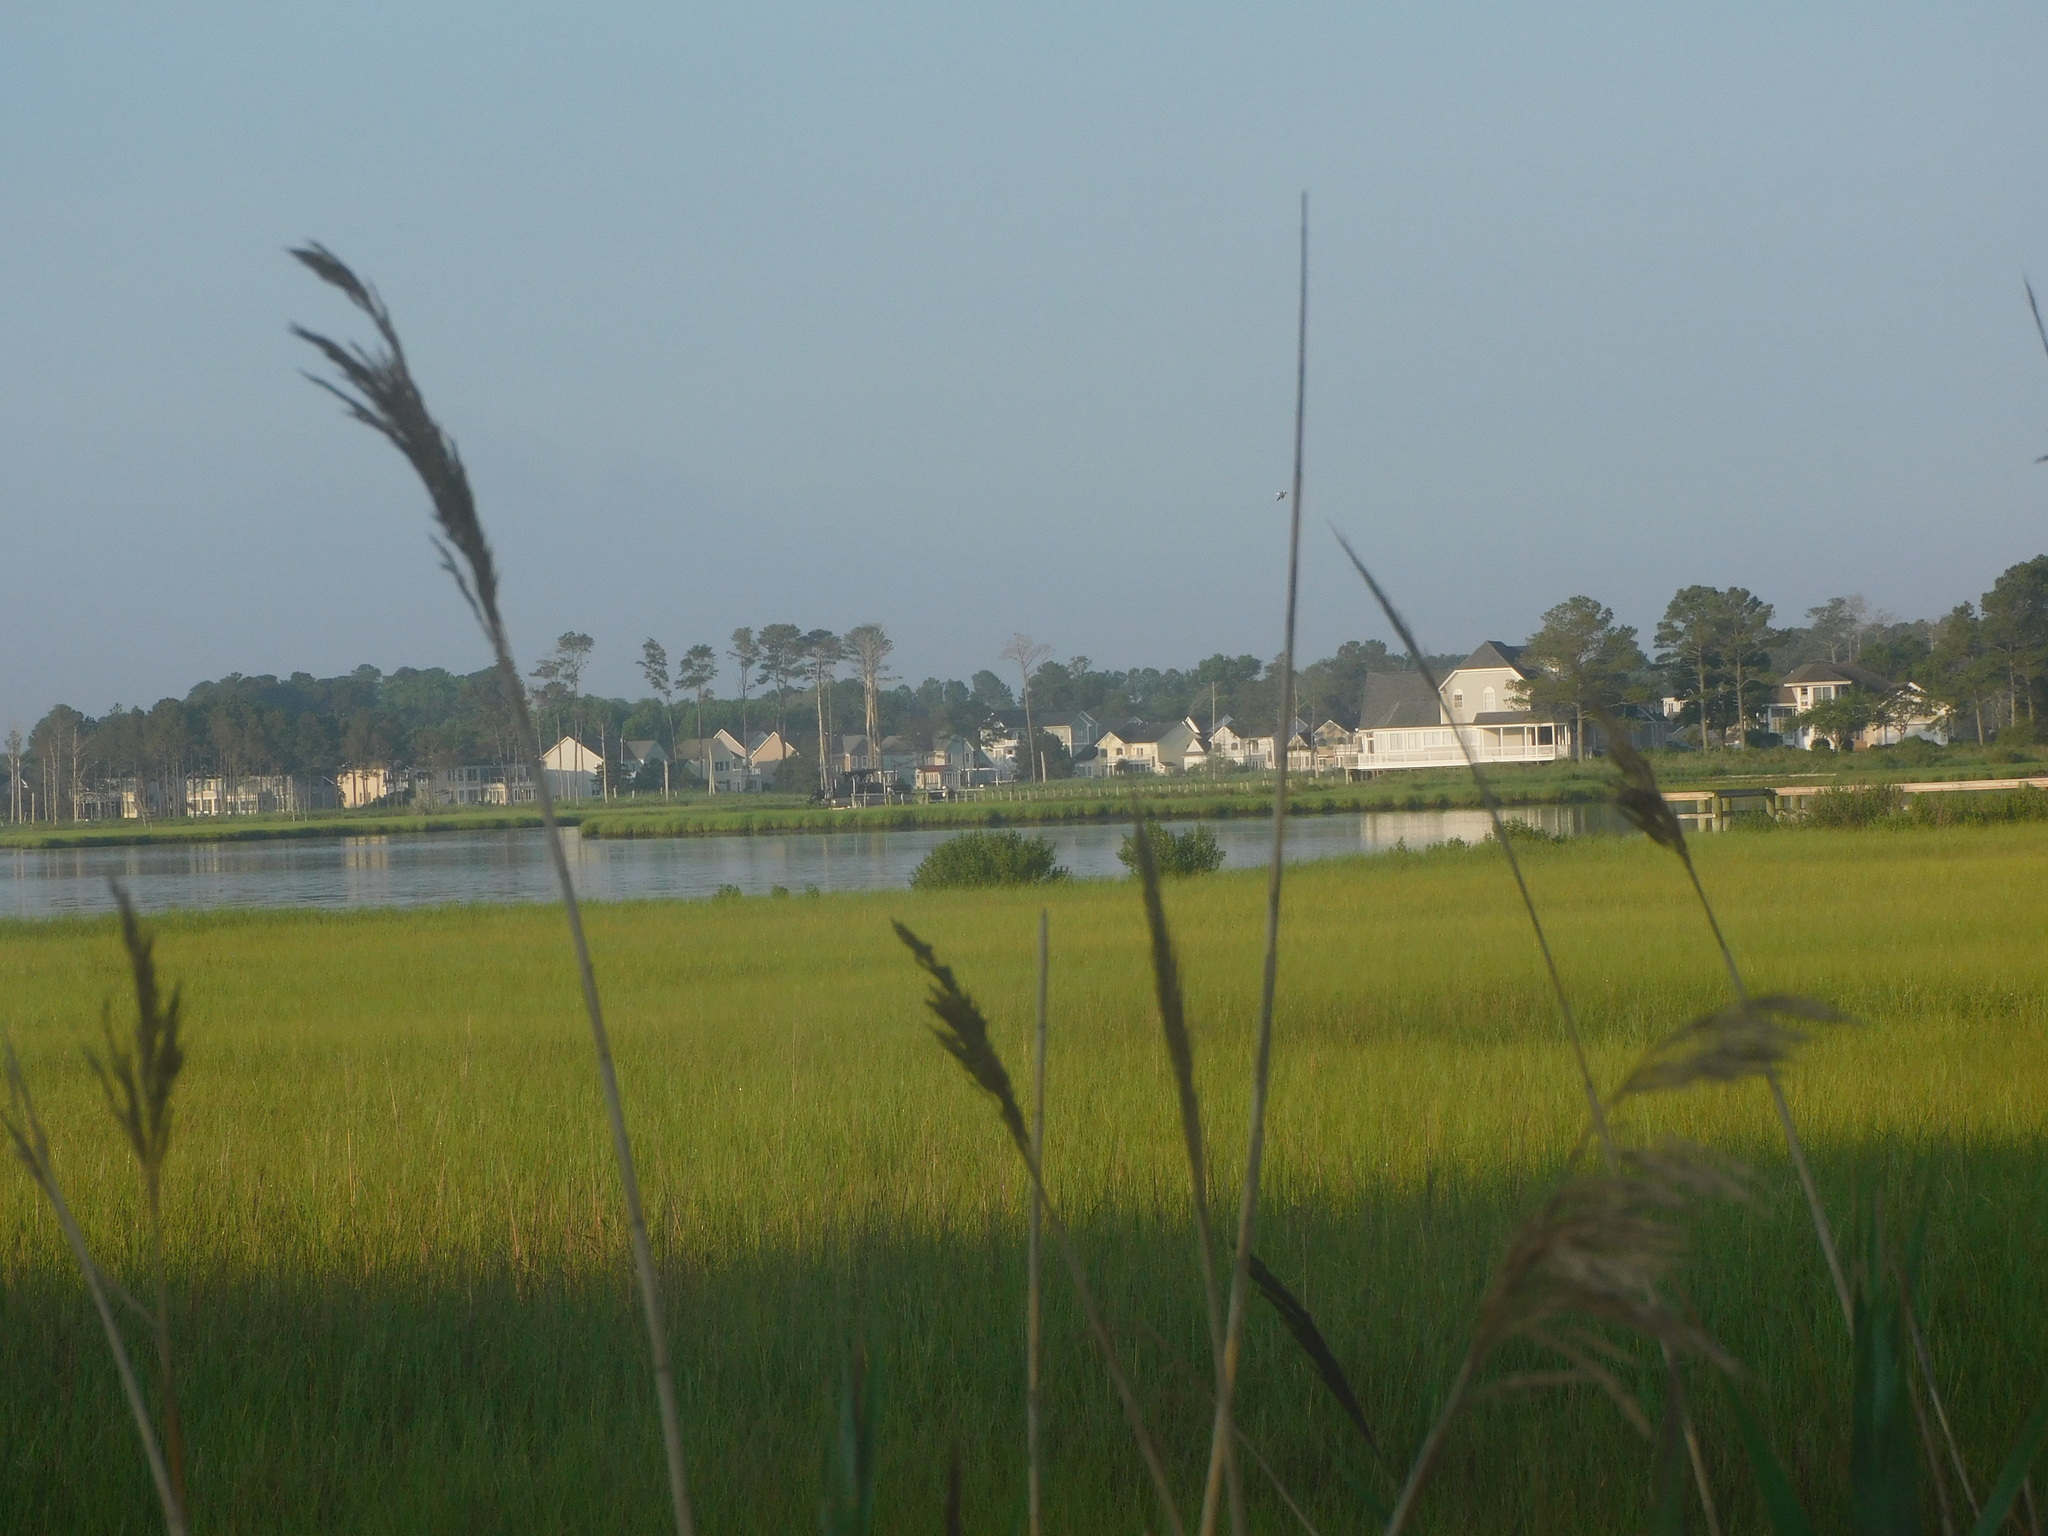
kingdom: Plantae
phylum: Tracheophyta
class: Liliopsida
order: Poales
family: Poaceae
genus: Phragmites
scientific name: Phragmites australis
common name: Common reed
